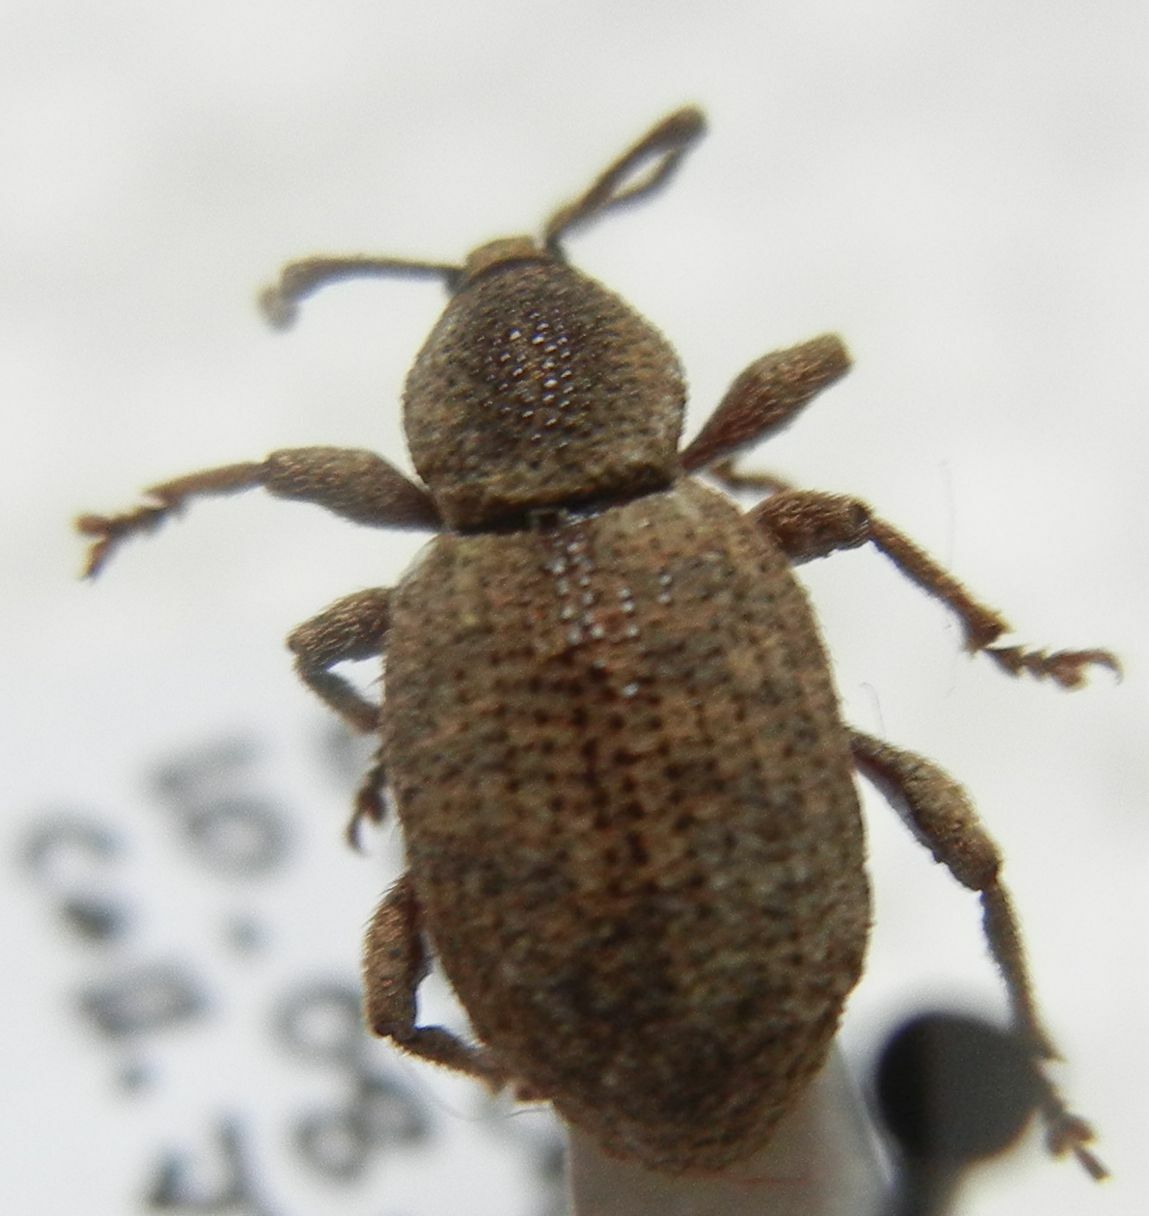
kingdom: Animalia
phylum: Arthropoda
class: Insecta
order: Coleoptera
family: Curculionidae
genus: Otiorhynchus
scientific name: Otiorhynchus singularis
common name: Clay-coloured weevil
